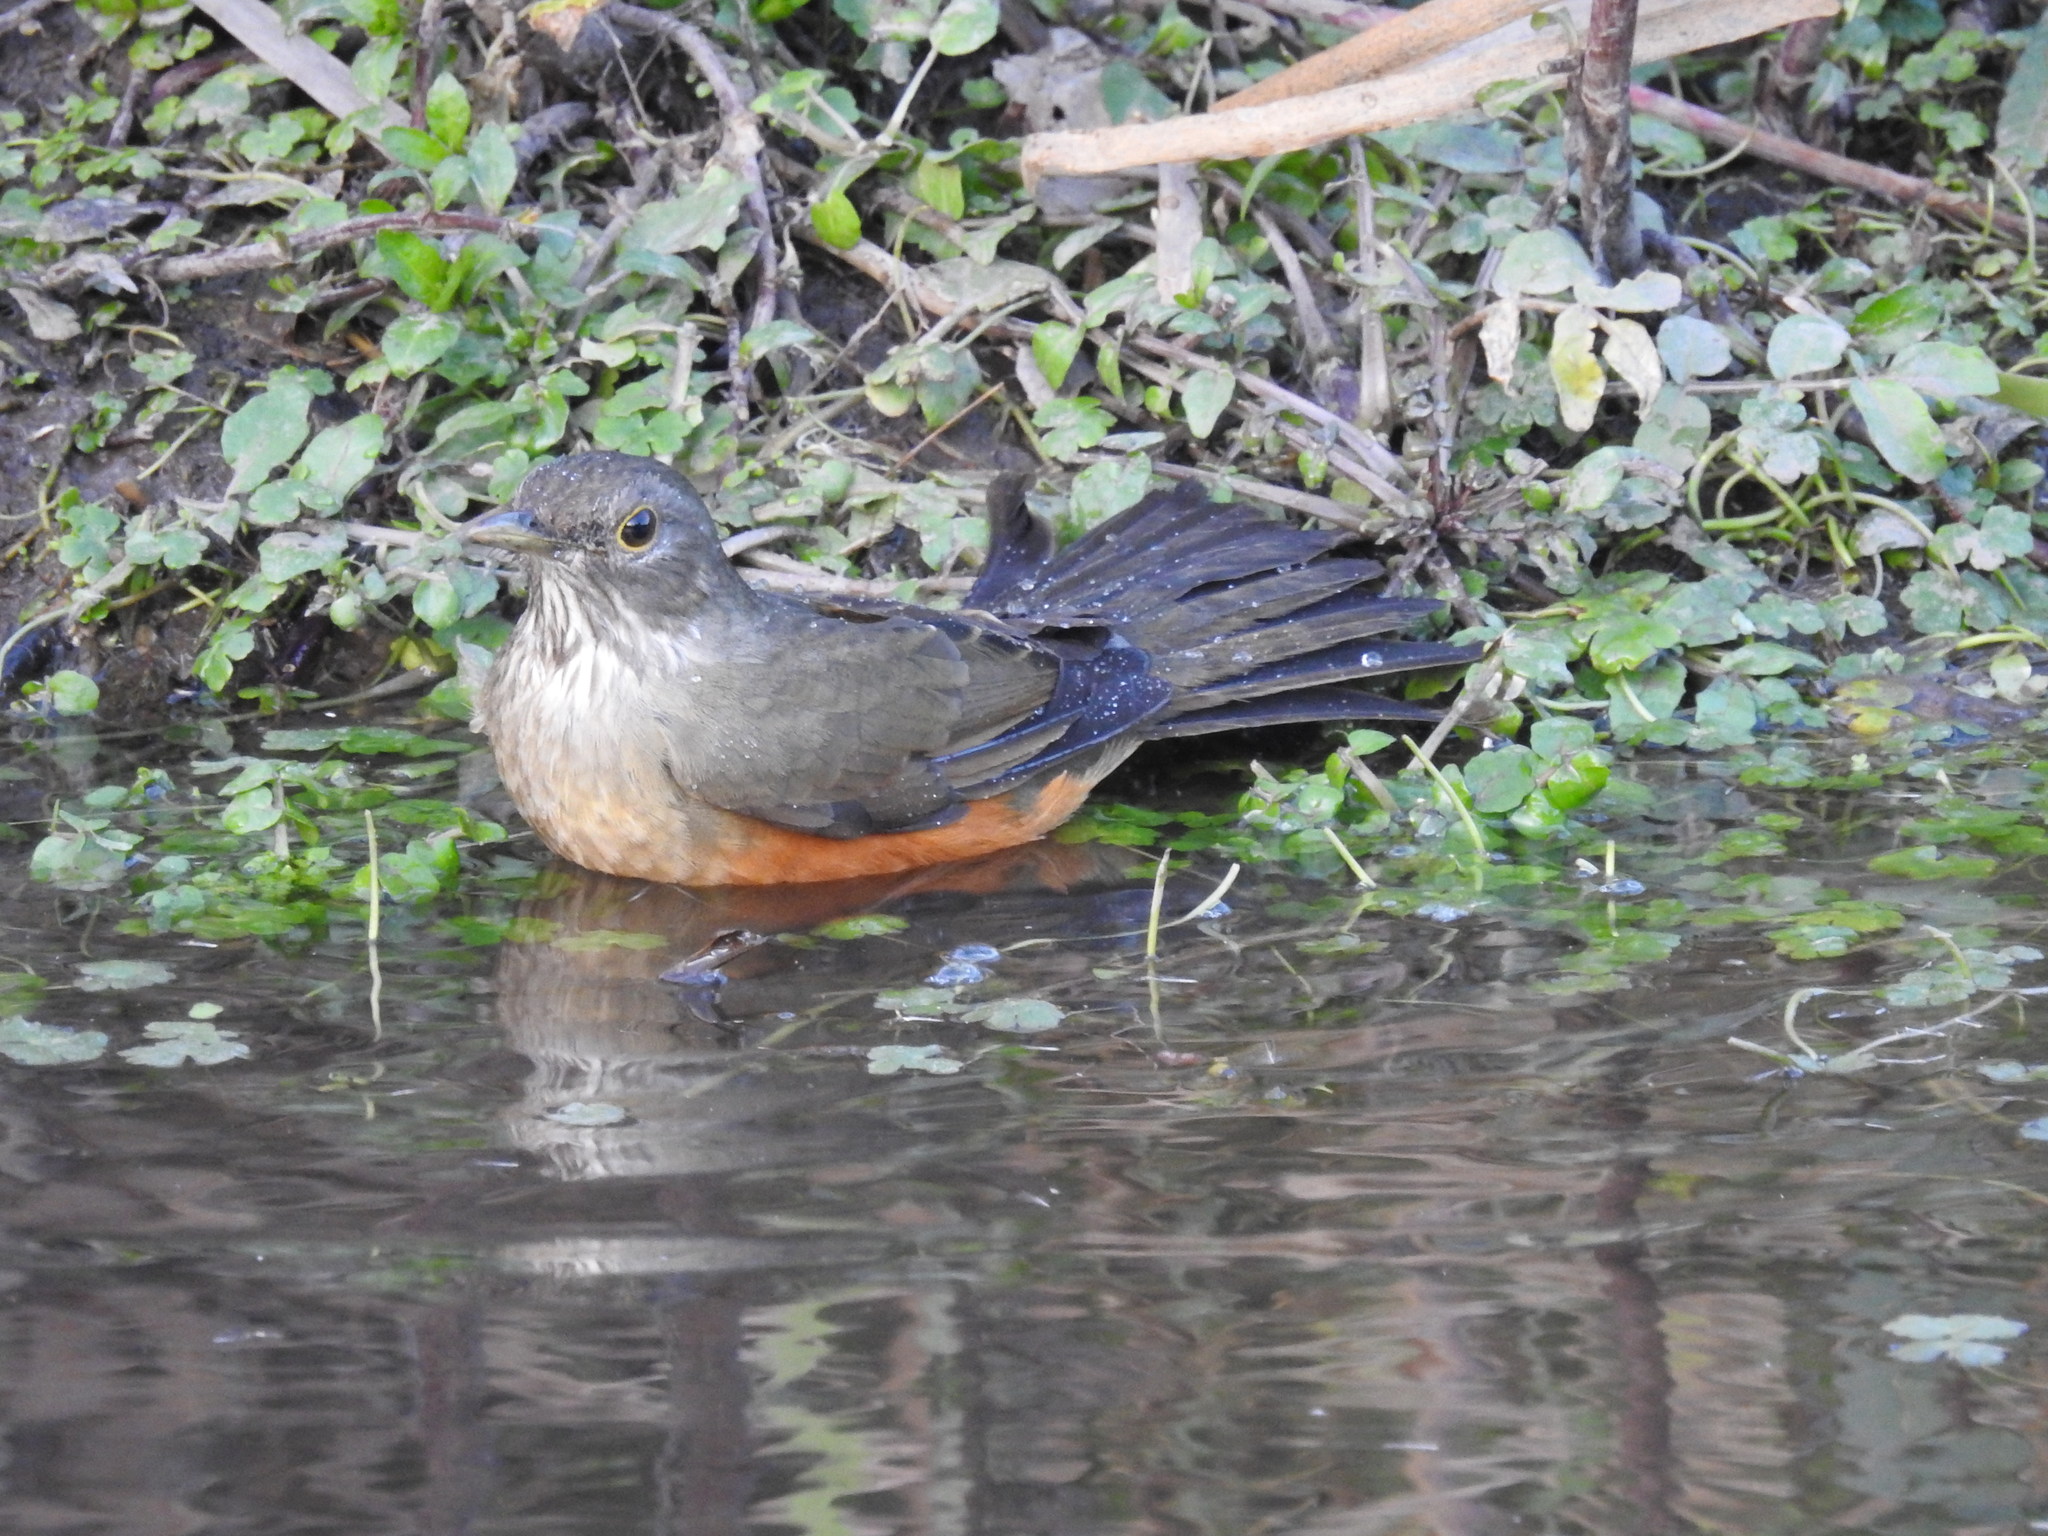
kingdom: Animalia
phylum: Chordata
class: Aves
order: Passeriformes
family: Turdidae
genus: Turdus
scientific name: Turdus rufiventris
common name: Rufous-bellied thrush
